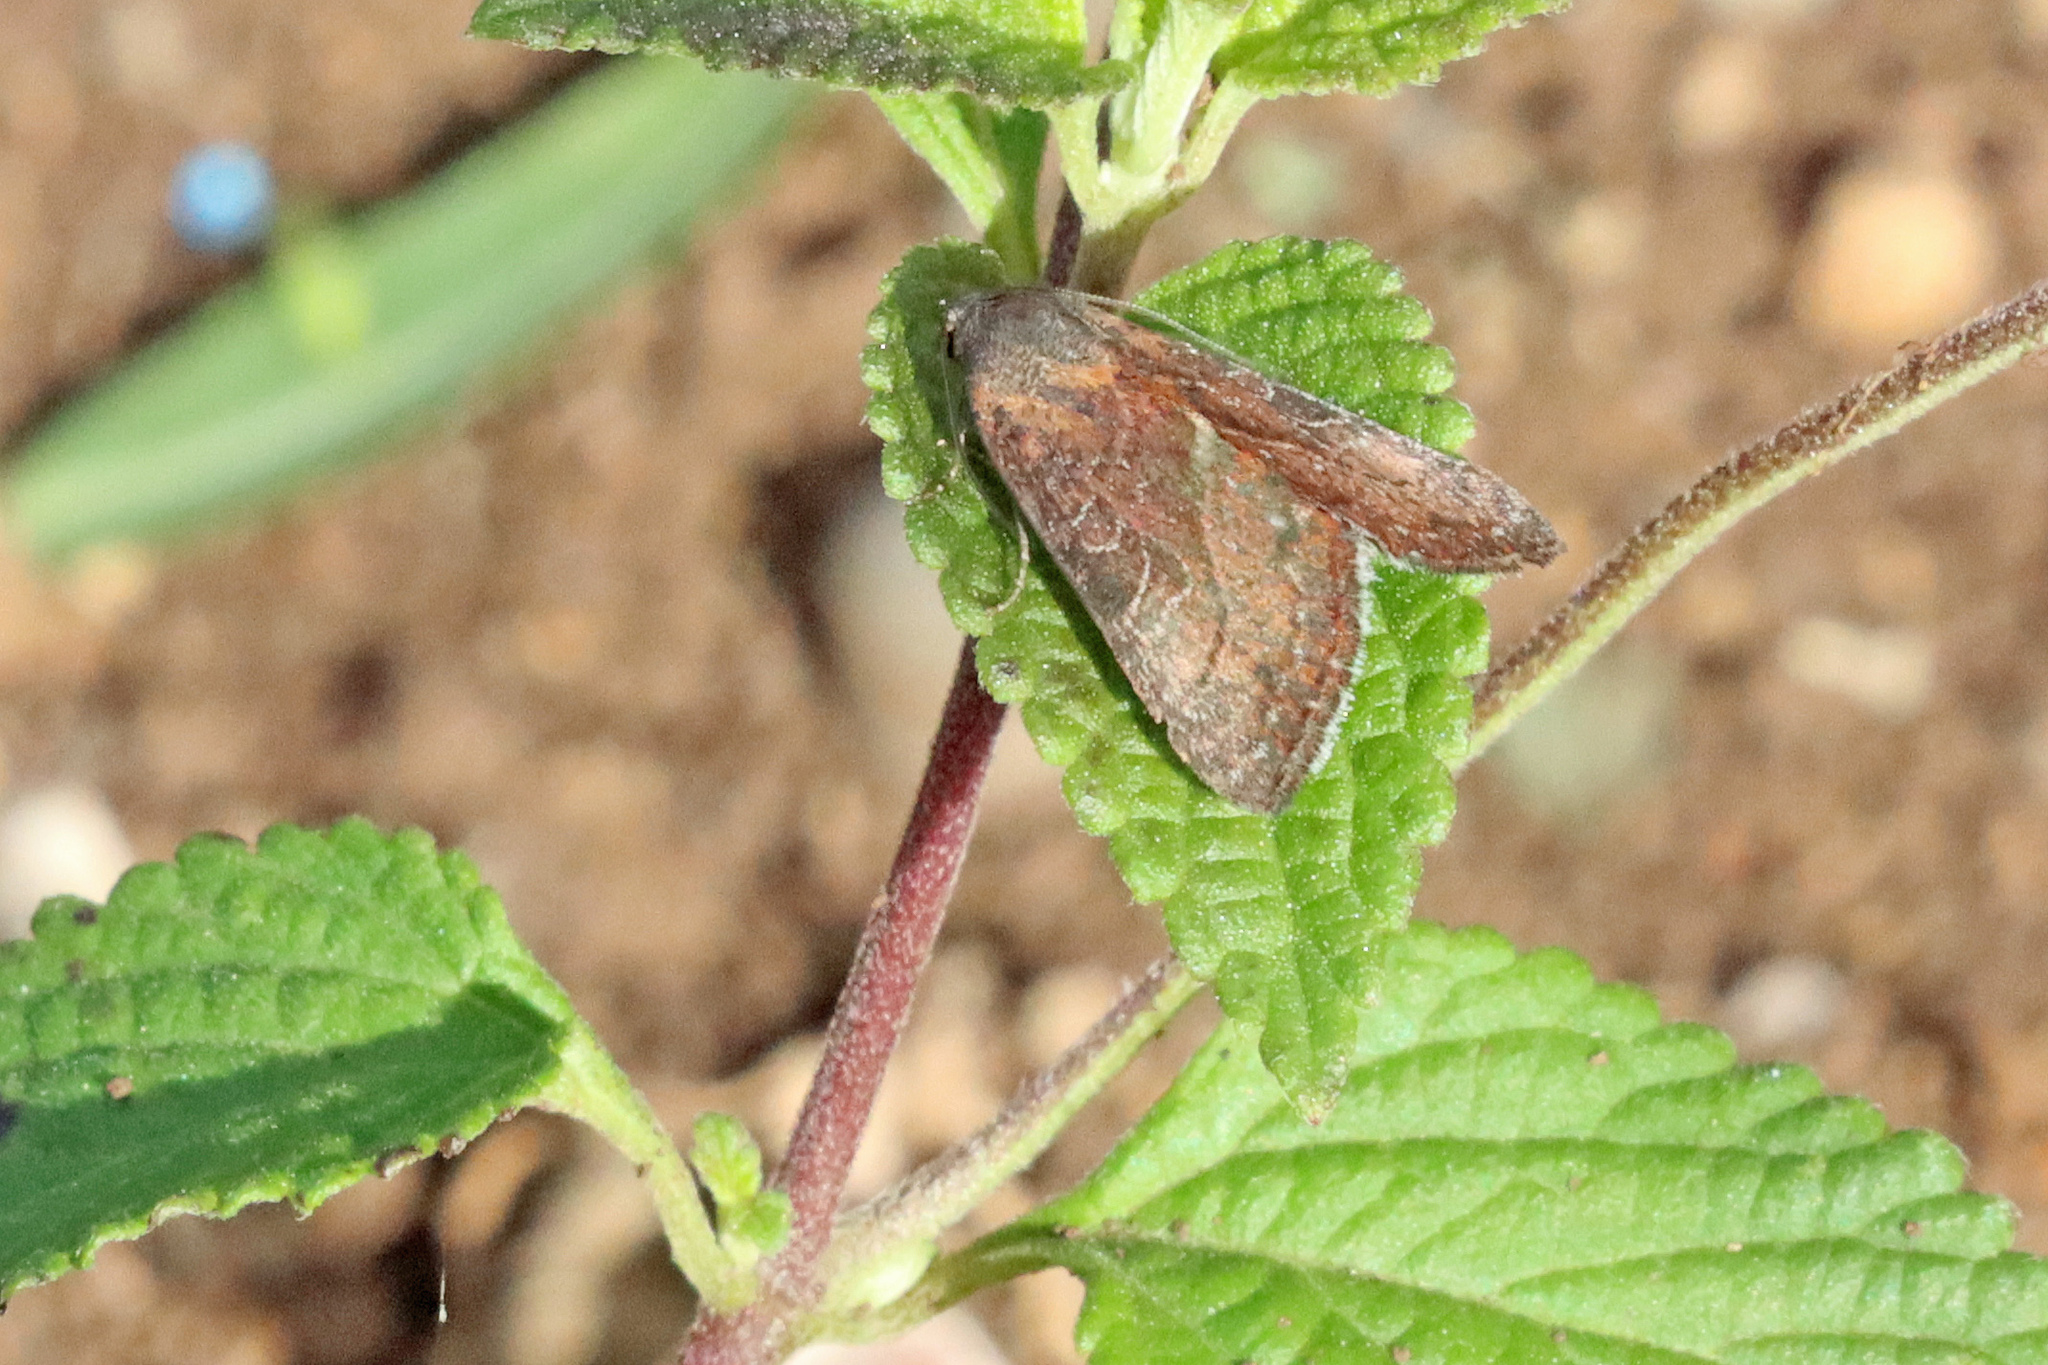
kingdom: Animalia
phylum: Arthropoda
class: Insecta
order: Lepidoptera
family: Noctuidae
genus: Galgula
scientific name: Galgula partita
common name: Wedgeling
